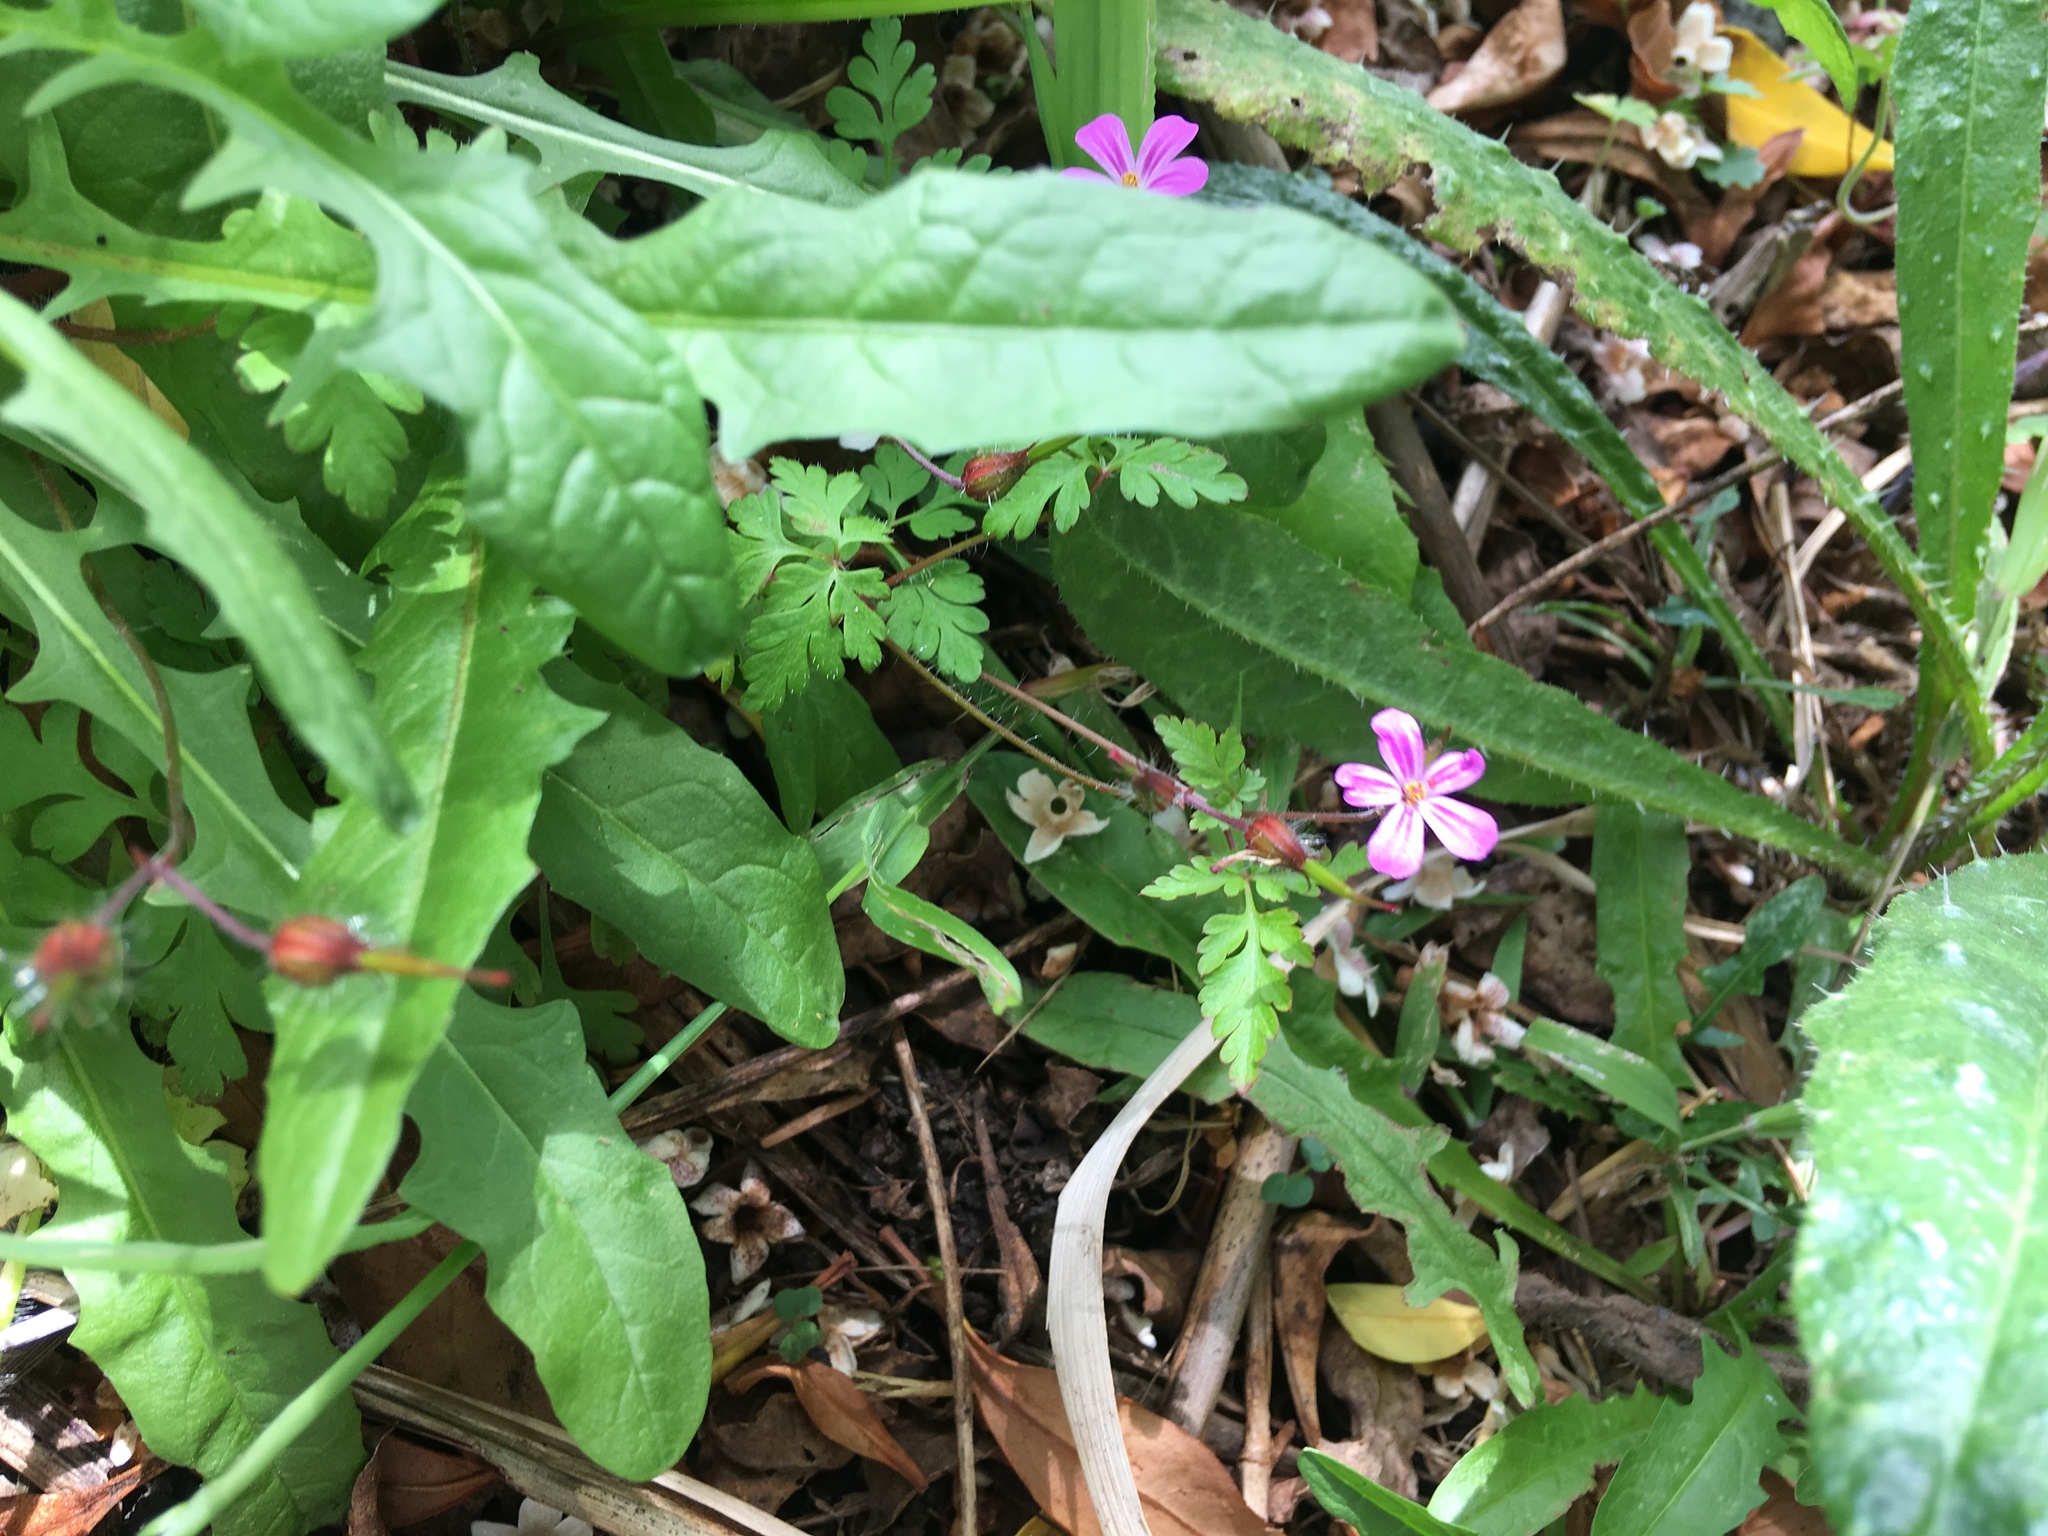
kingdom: Plantae
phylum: Tracheophyta
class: Magnoliopsida
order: Geraniales
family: Geraniaceae
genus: Geranium
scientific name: Geranium robertianum
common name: Herb-robert
